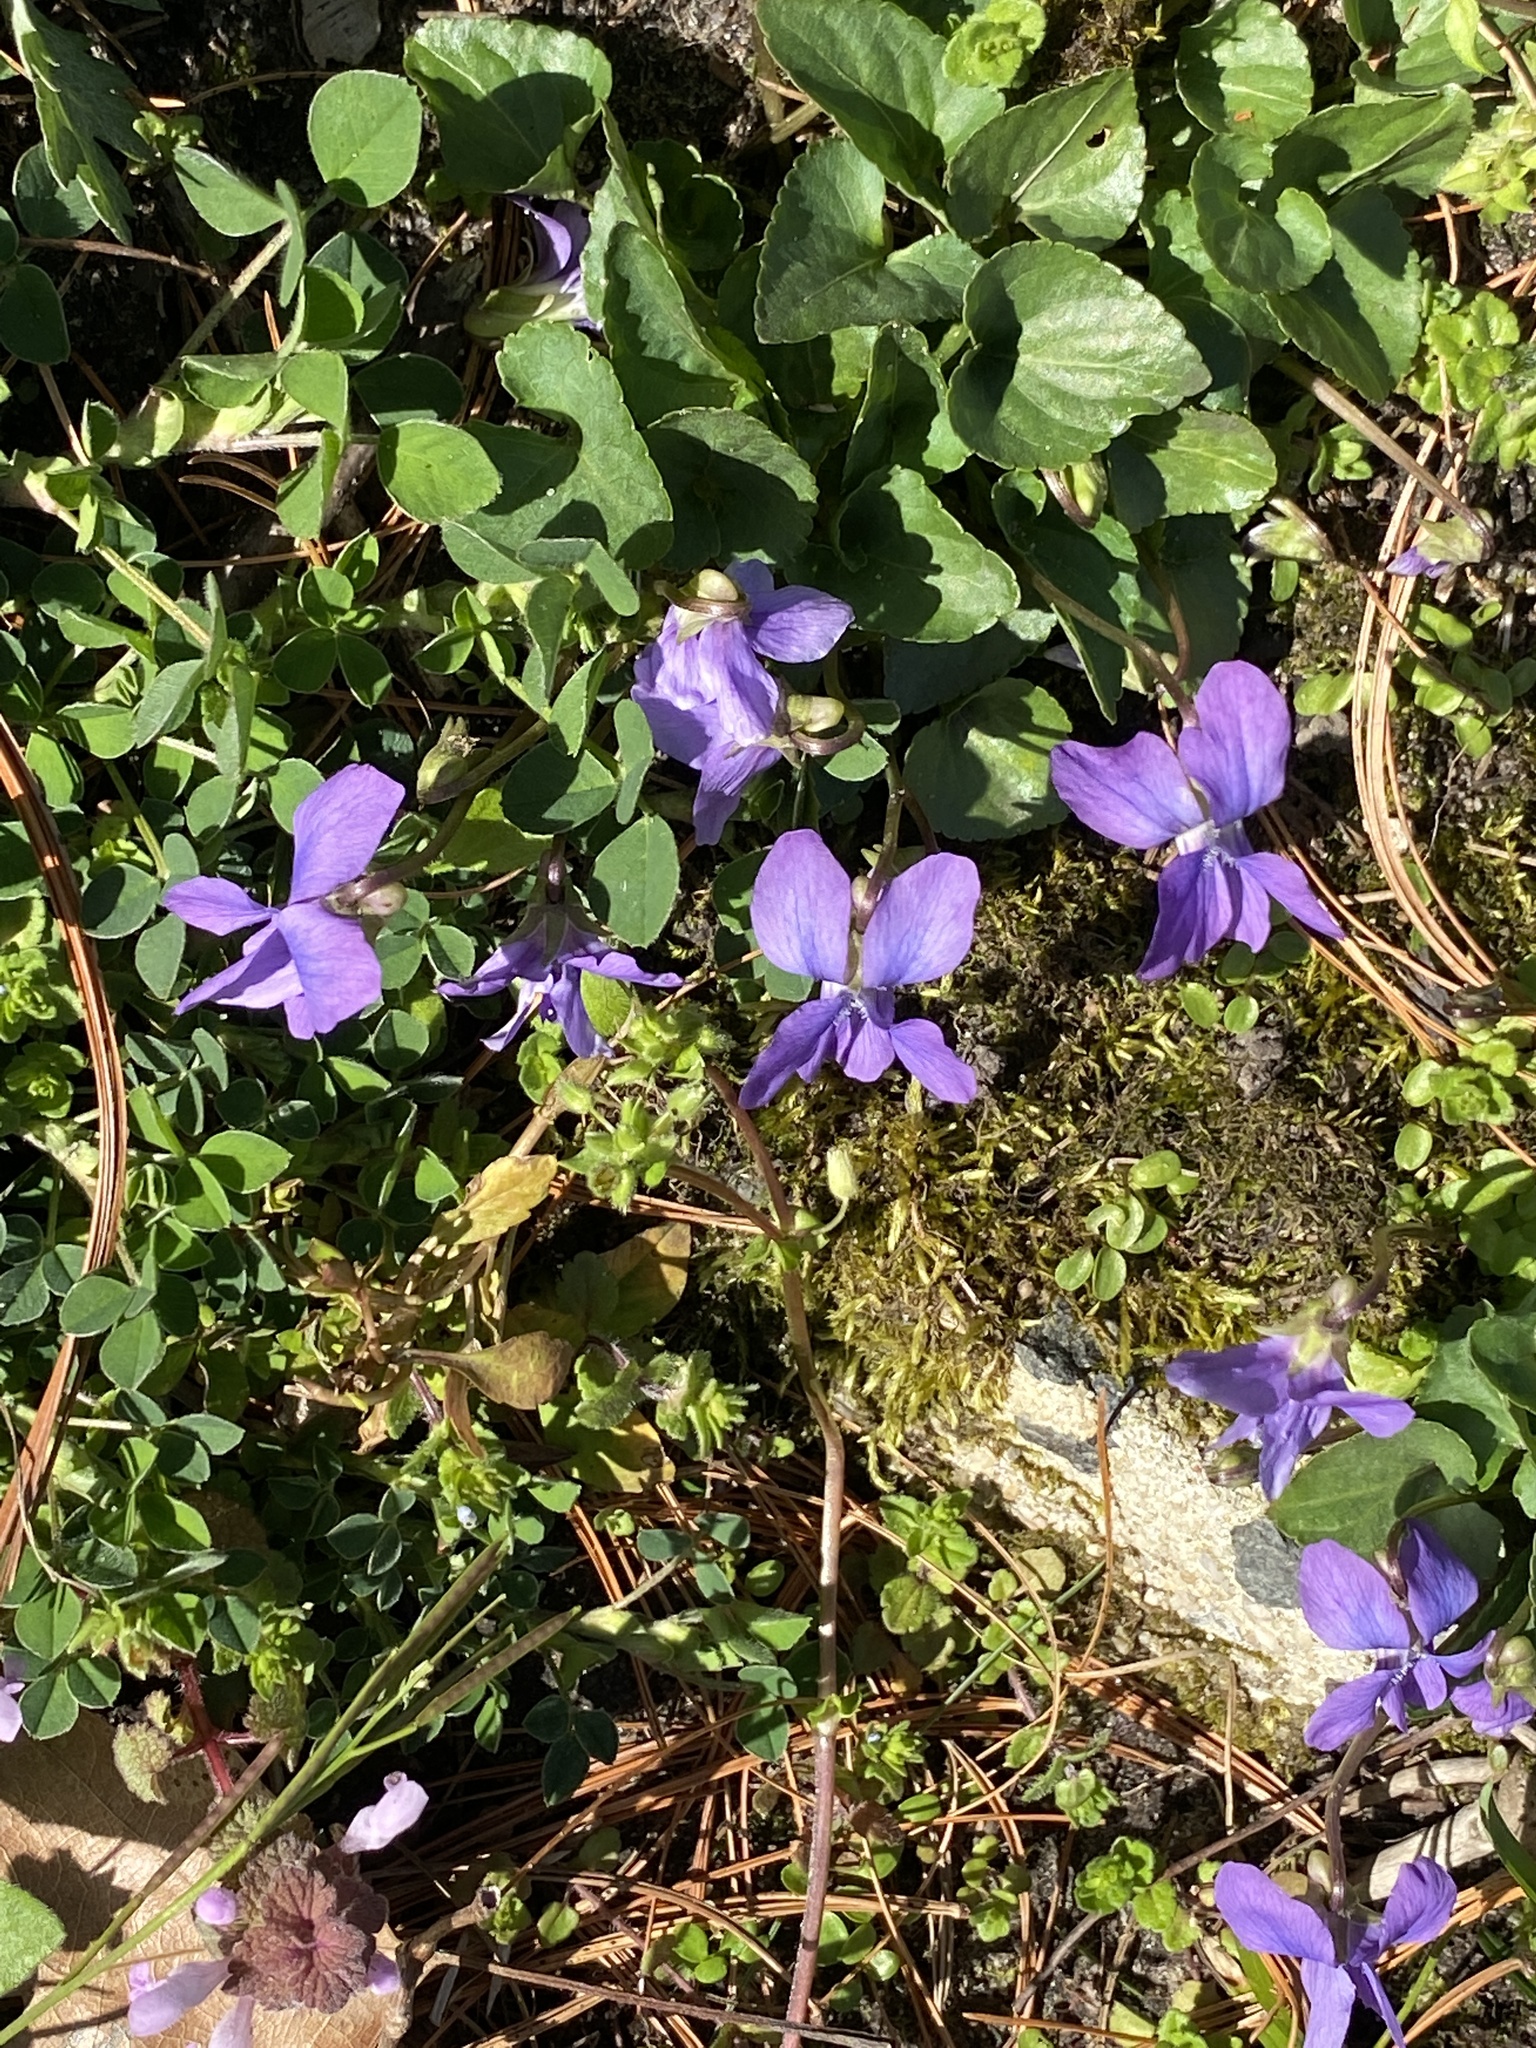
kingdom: Plantae
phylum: Tracheophyta
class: Magnoliopsida
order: Malpighiales
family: Violaceae
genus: Viola
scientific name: Viola sororia
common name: Dooryard violet
